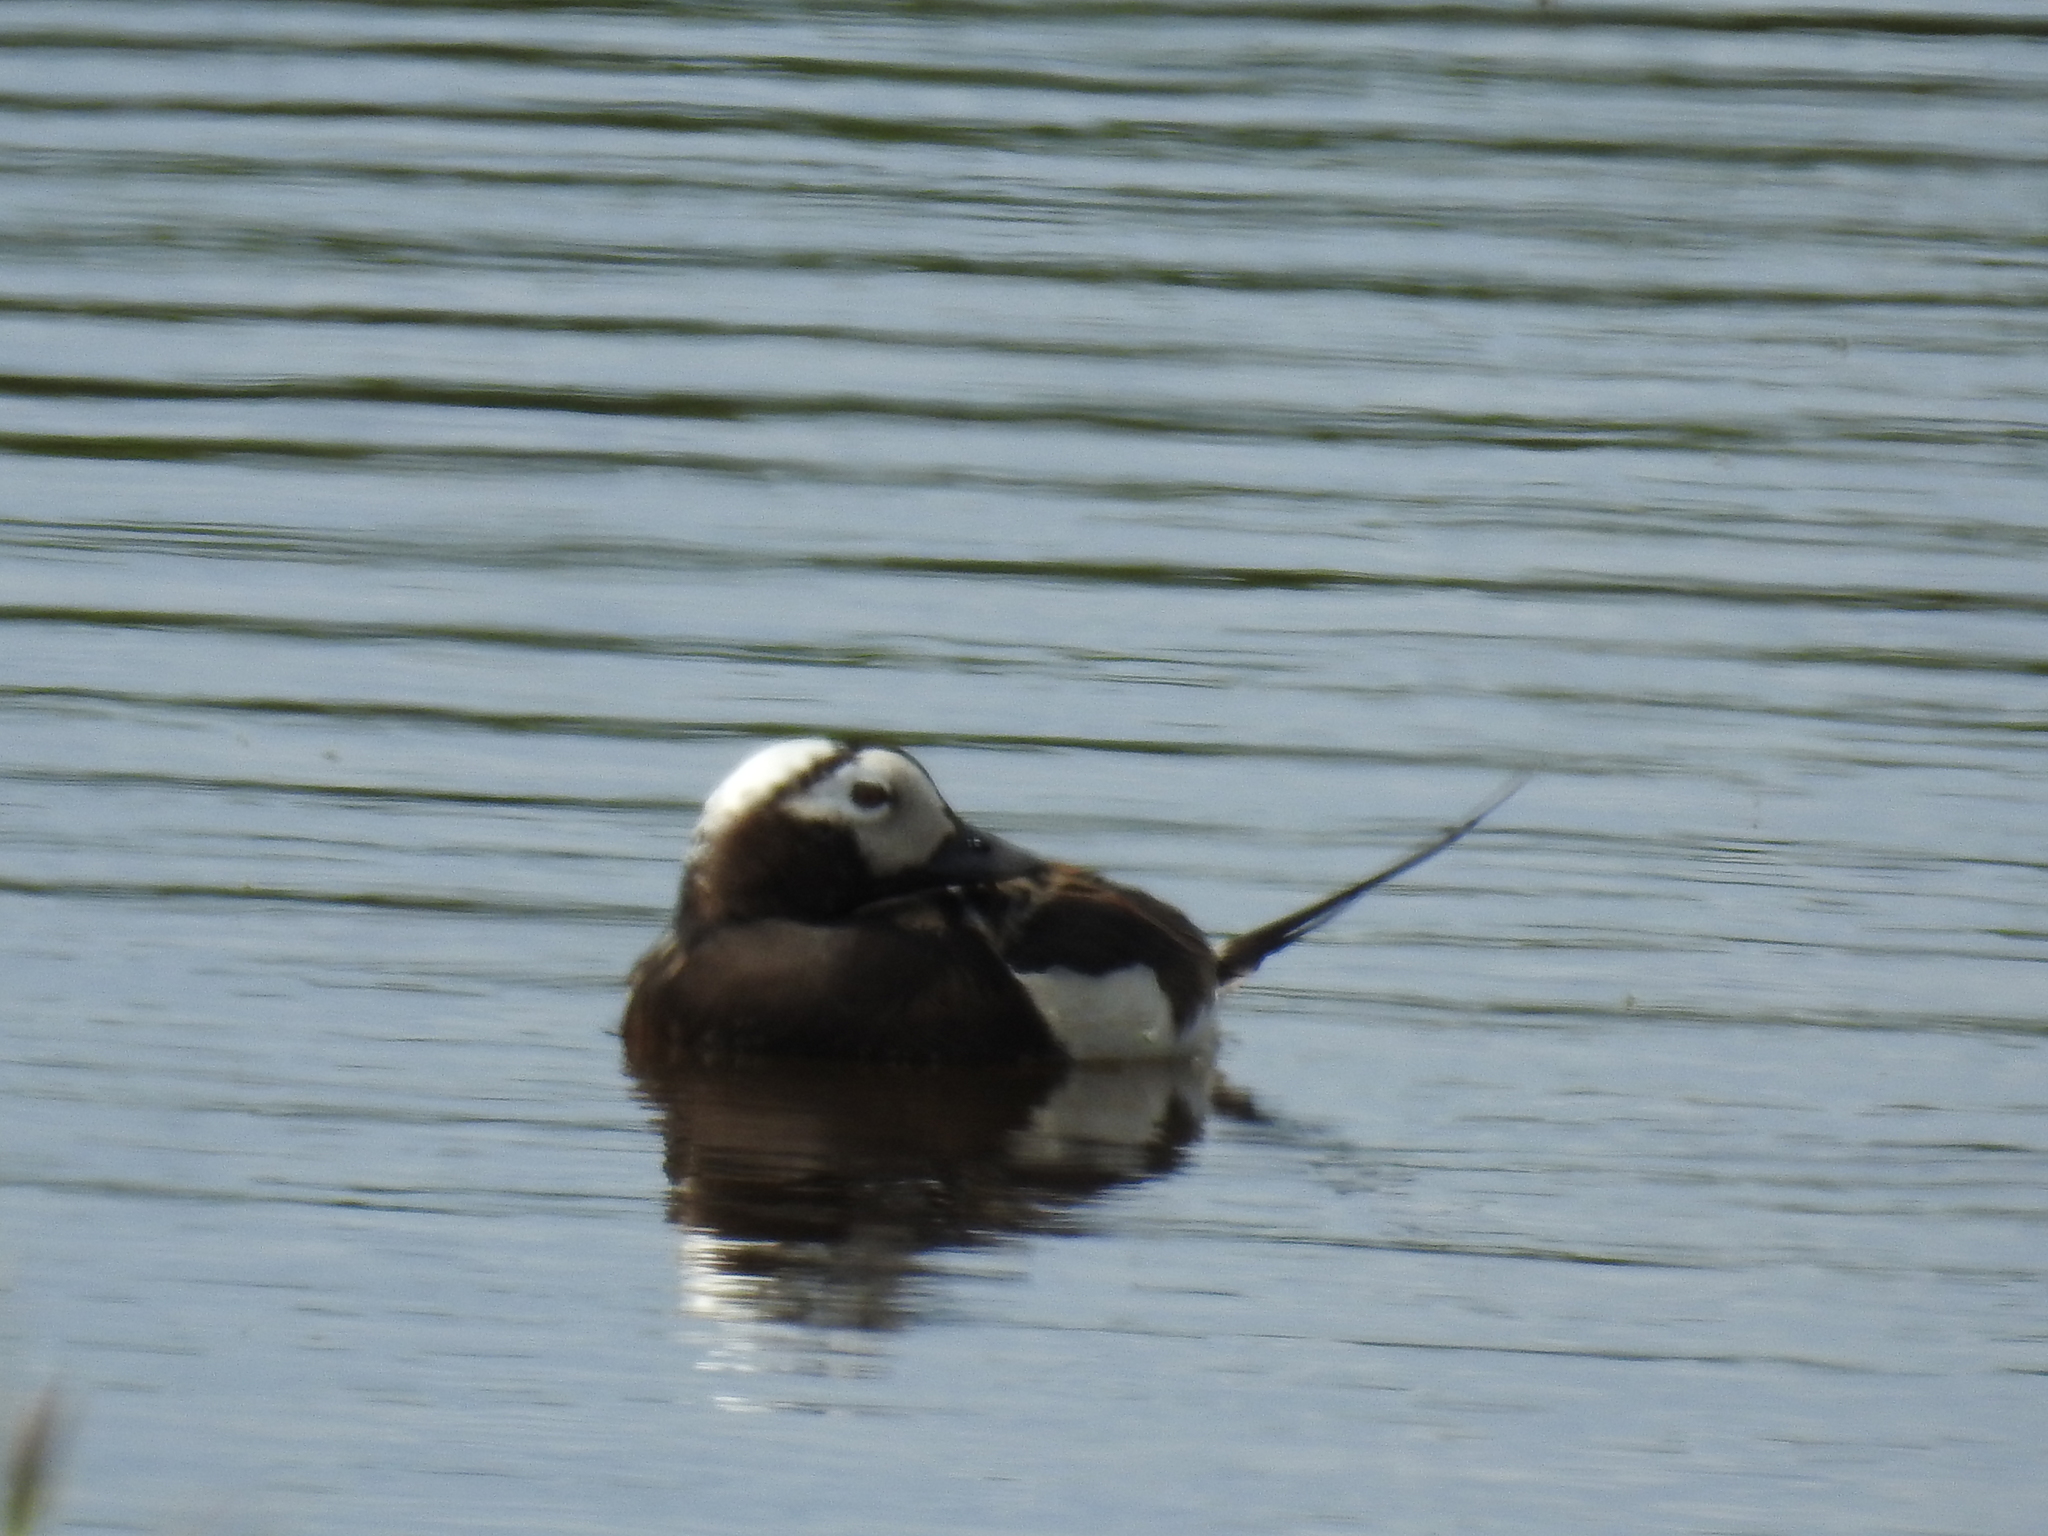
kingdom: Animalia
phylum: Chordata
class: Aves
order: Anseriformes
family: Anatidae
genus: Clangula
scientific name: Clangula hyemalis
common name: Long-tailed duck
